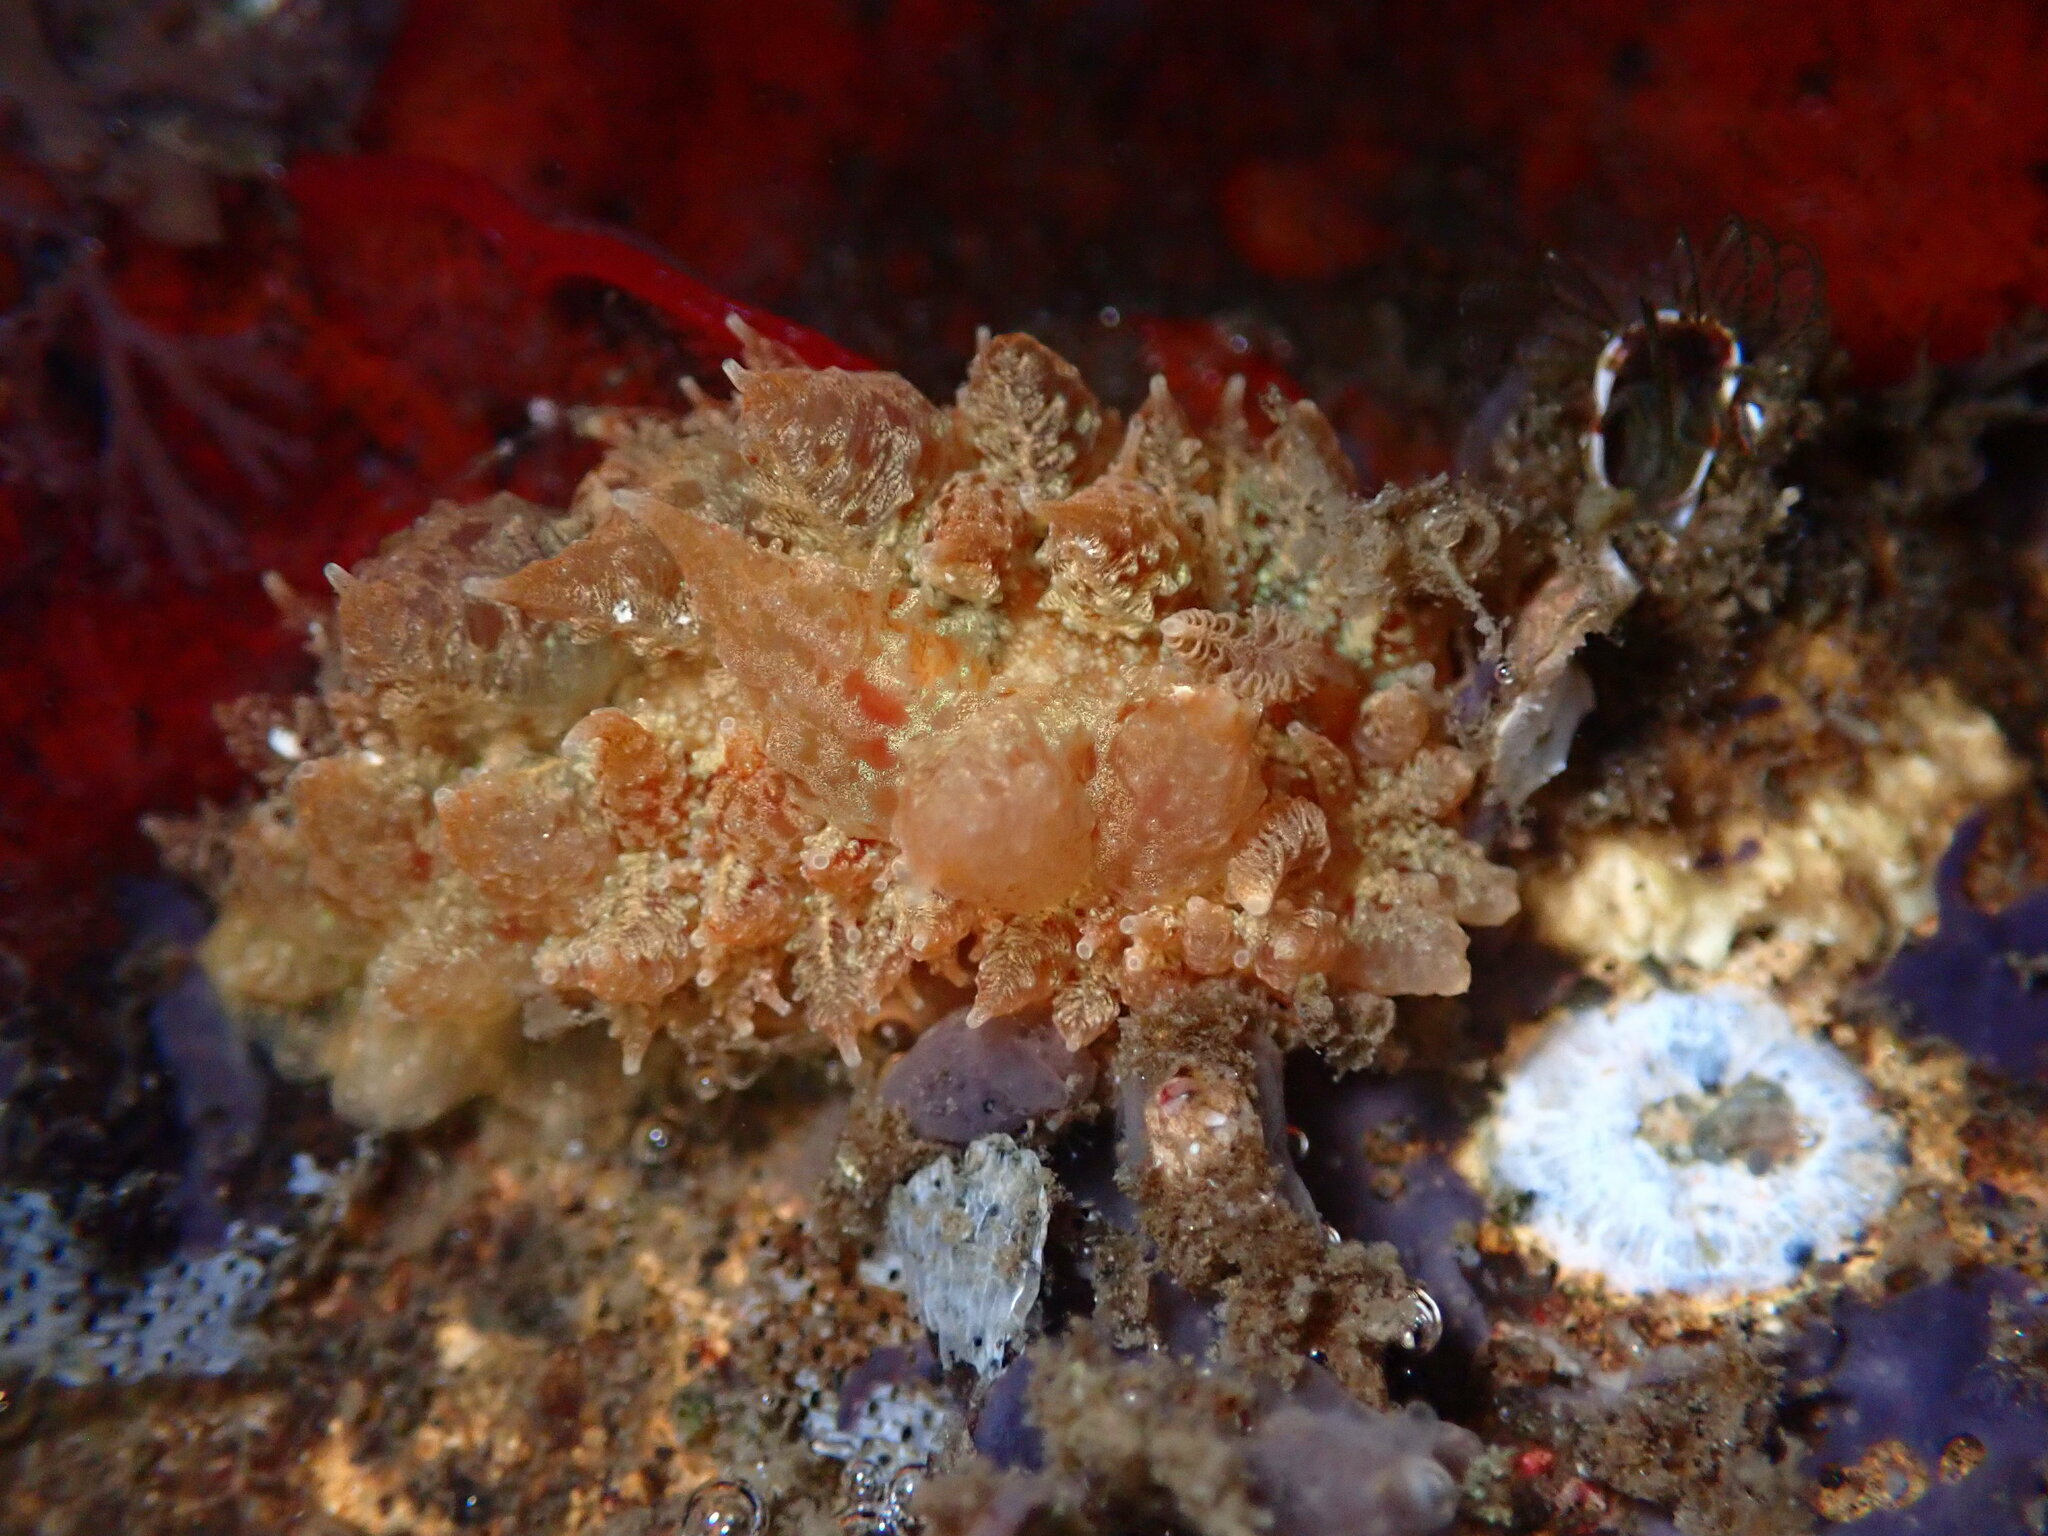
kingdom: Animalia
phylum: Mollusca
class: Gastropoda
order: Nudibranchia
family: Dironidae
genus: Dirona
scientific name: Dirona picta
